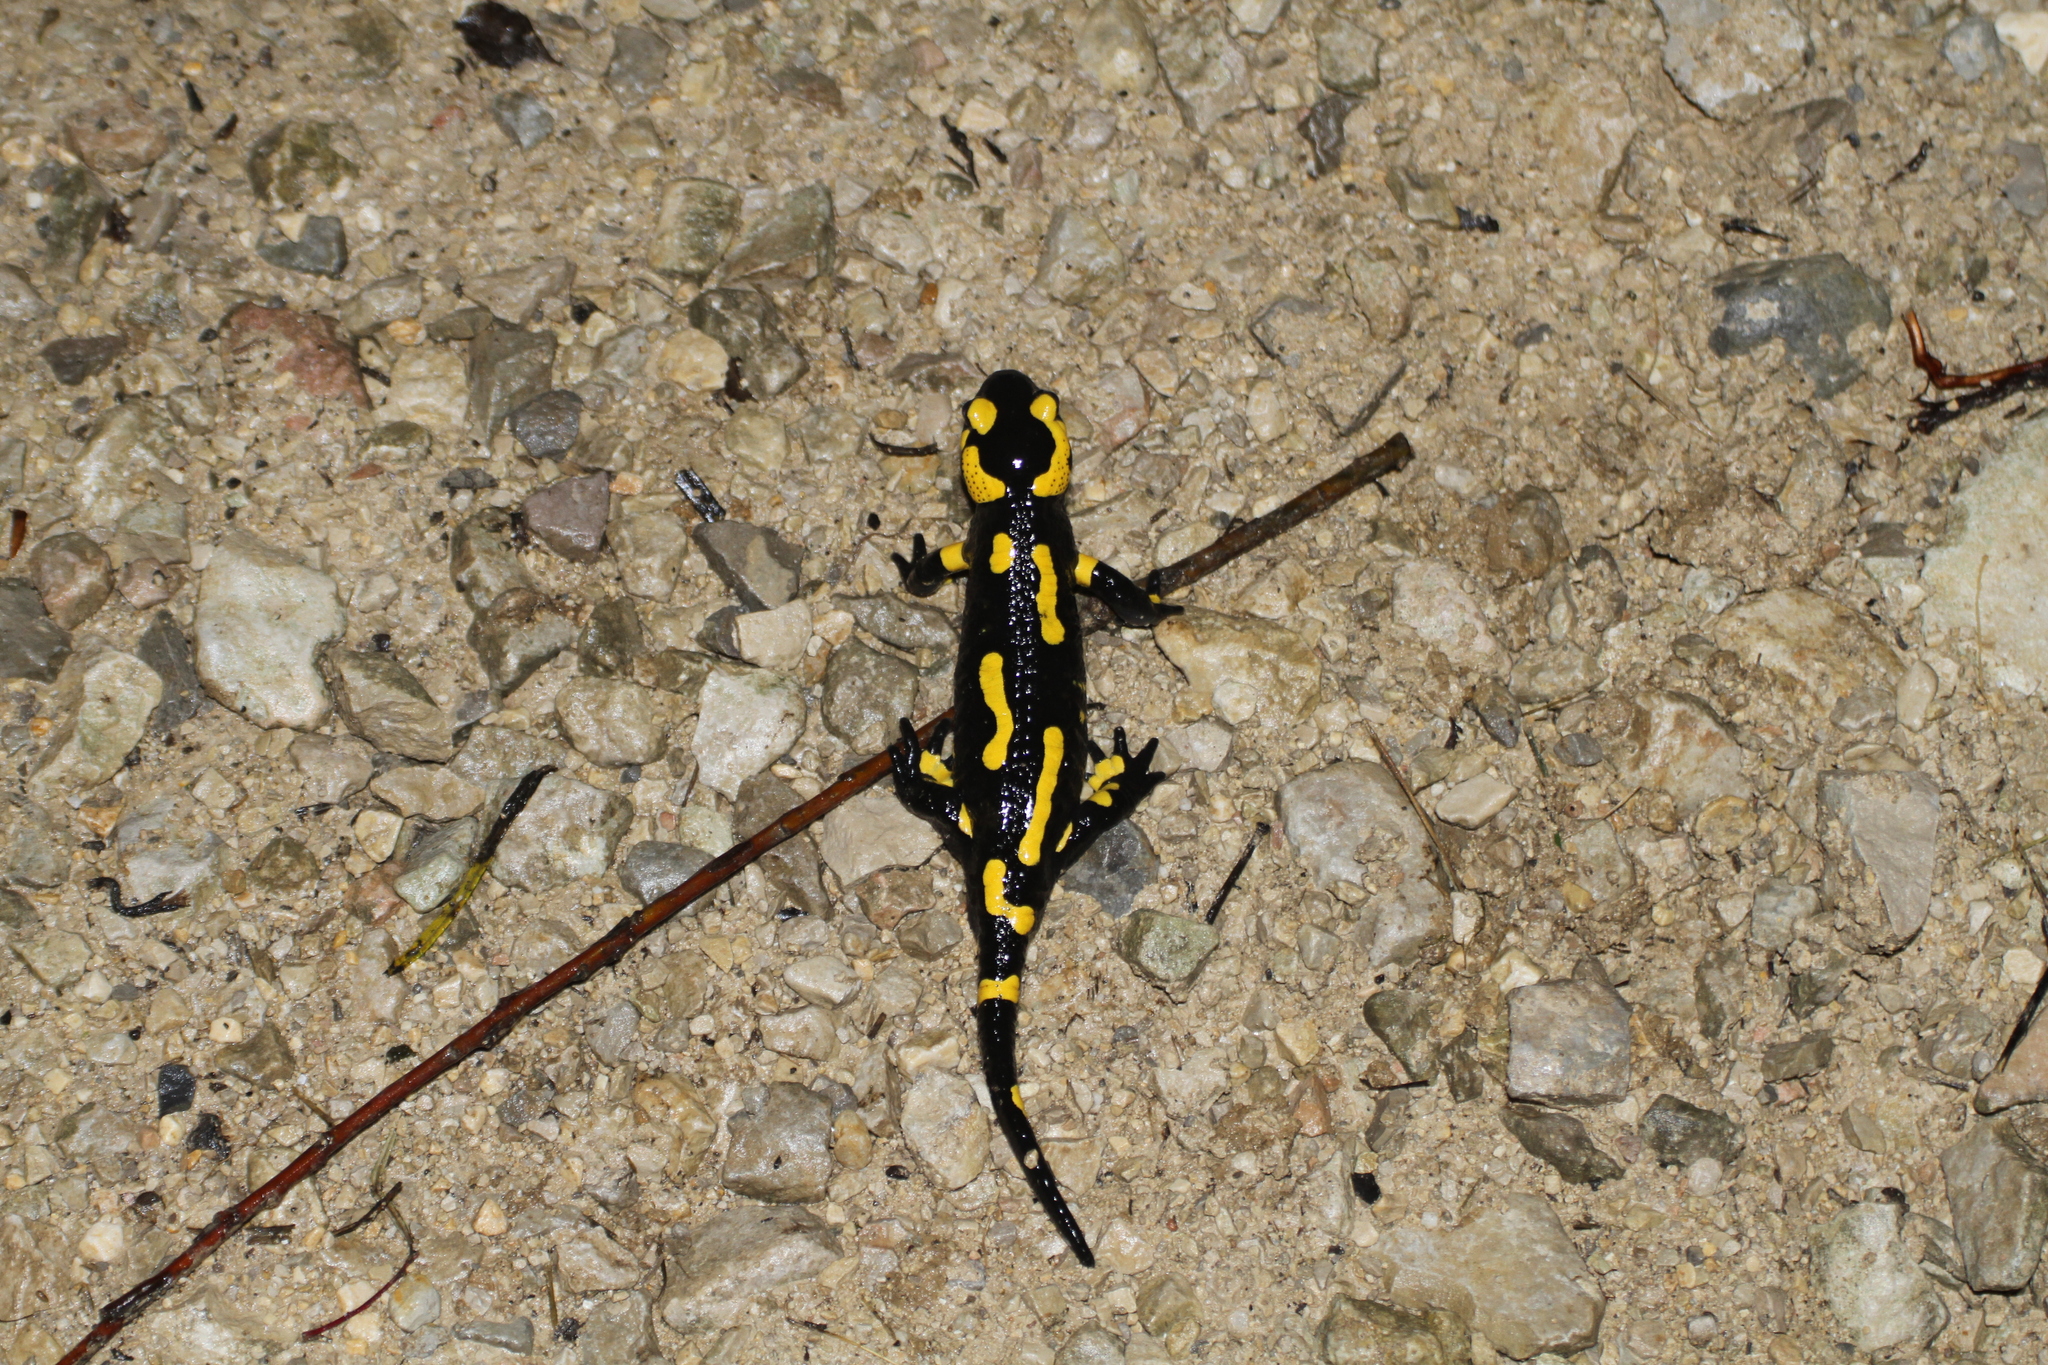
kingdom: Animalia
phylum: Chordata
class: Amphibia
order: Caudata
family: Salamandridae
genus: Salamandra
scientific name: Salamandra salamandra
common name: Fire salamander
